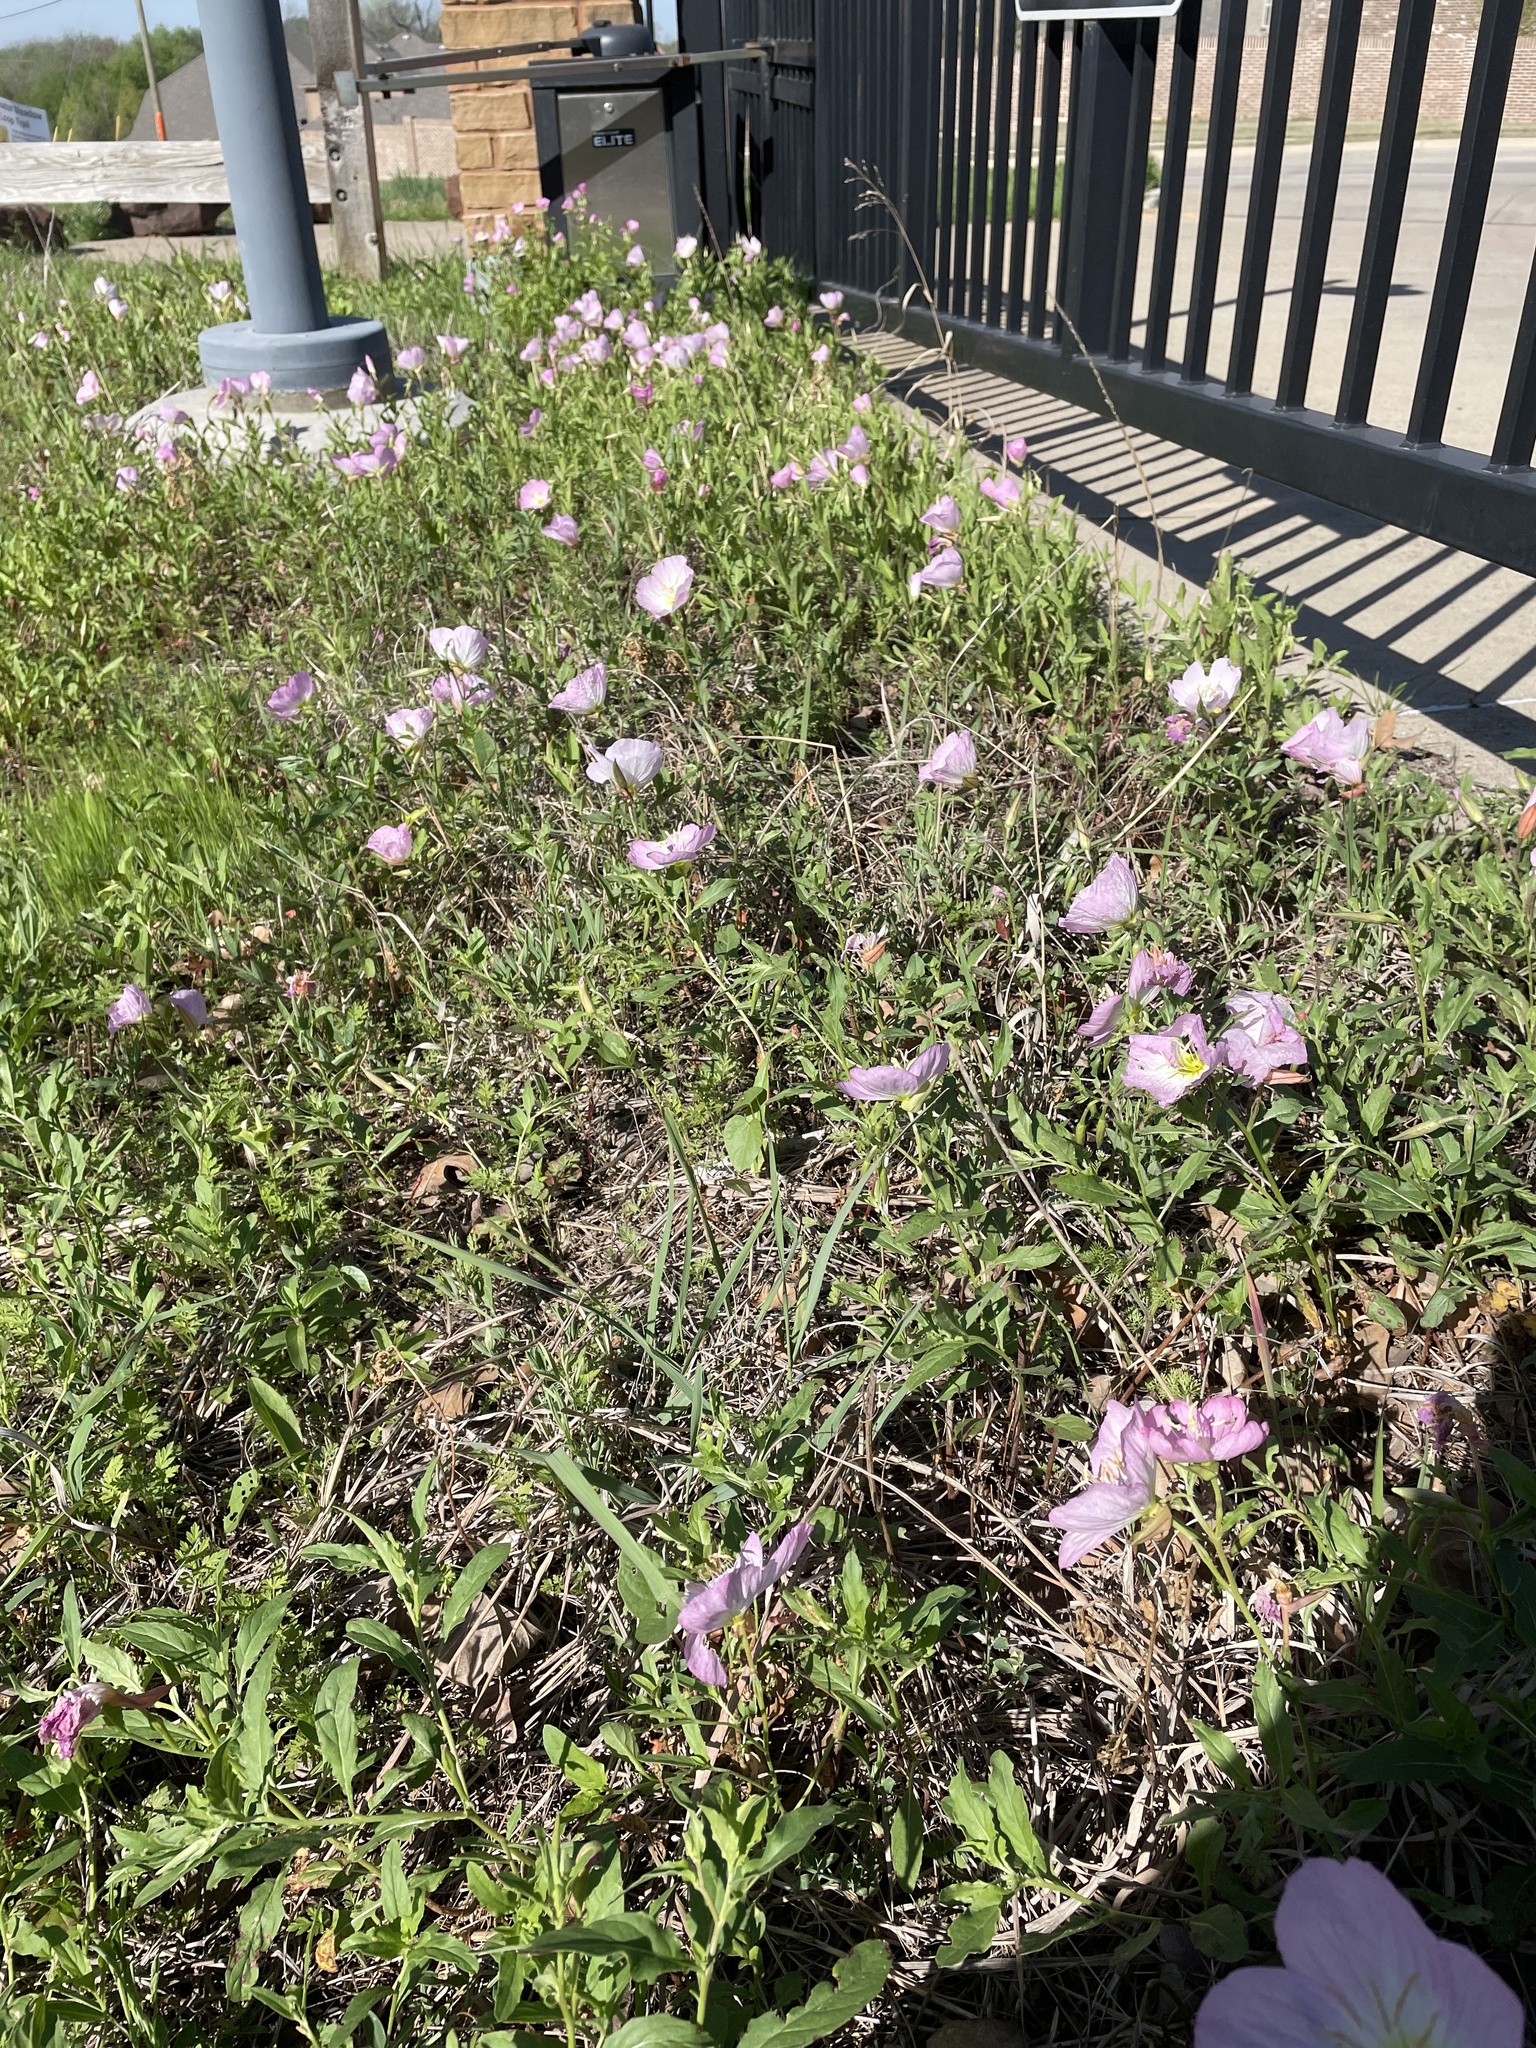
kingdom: Plantae
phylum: Tracheophyta
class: Magnoliopsida
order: Myrtales
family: Onagraceae
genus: Oenothera
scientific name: Oenothera speciosa
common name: White evening-primrose
